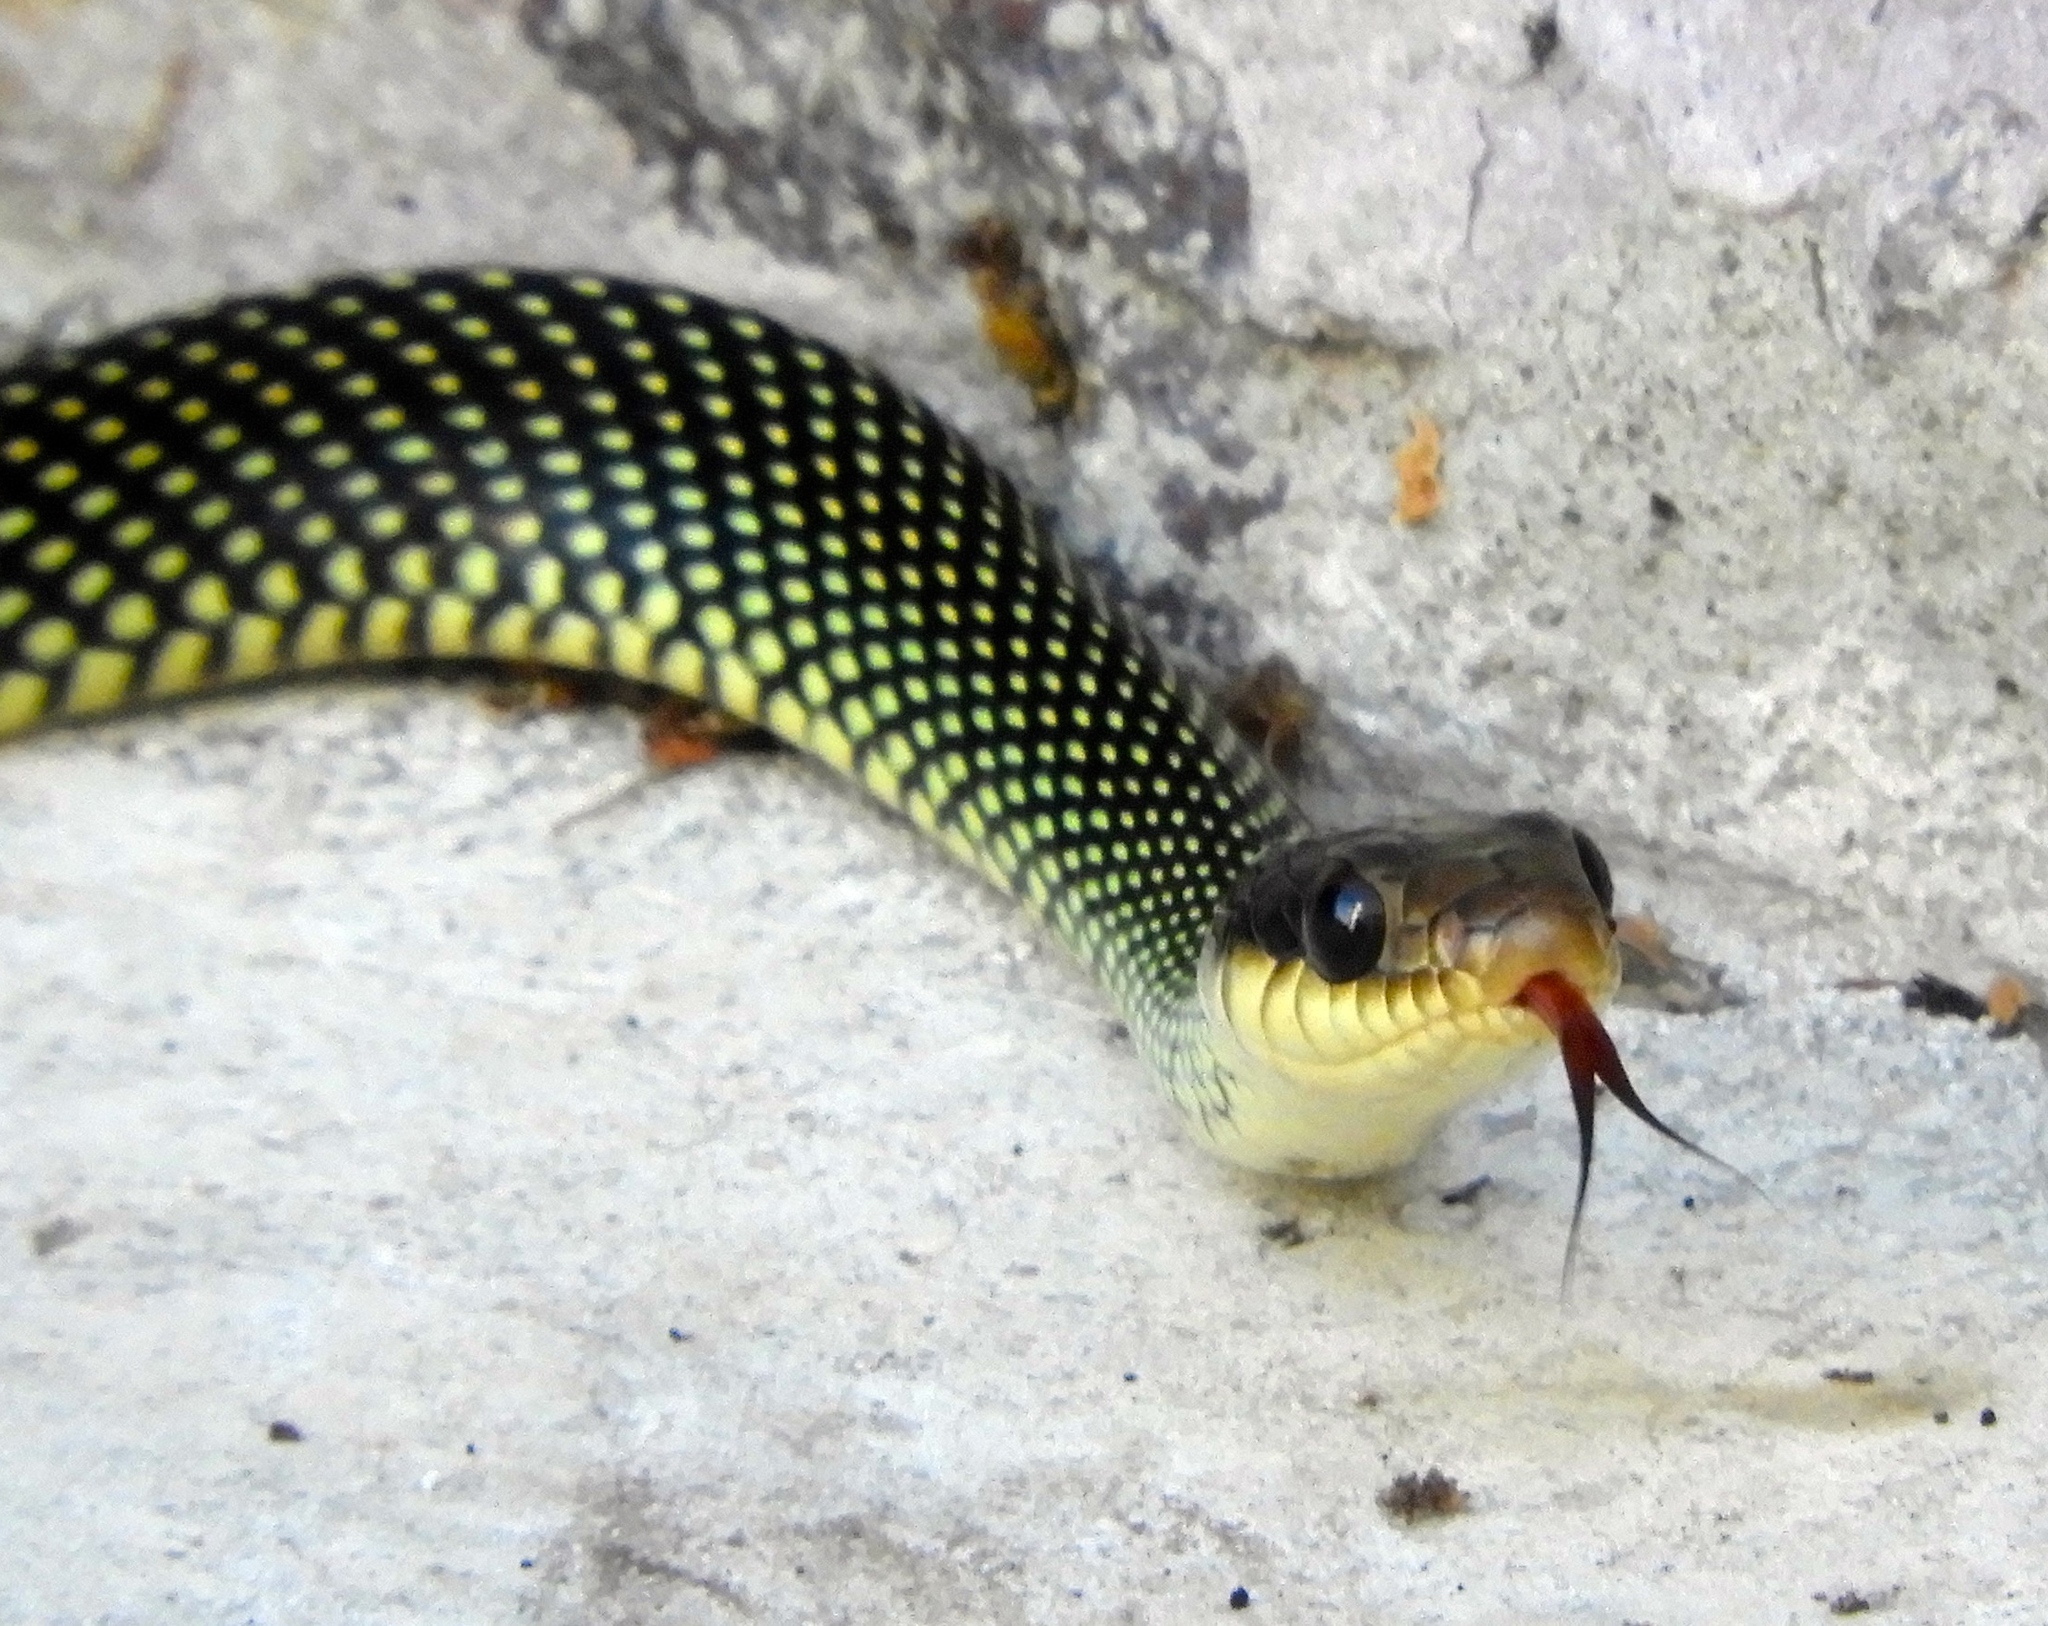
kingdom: Animalia
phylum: Chordata
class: Squamata
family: Colubridae
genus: Drymobius
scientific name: Drymobius margaritiferus
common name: Central american speckled racer
